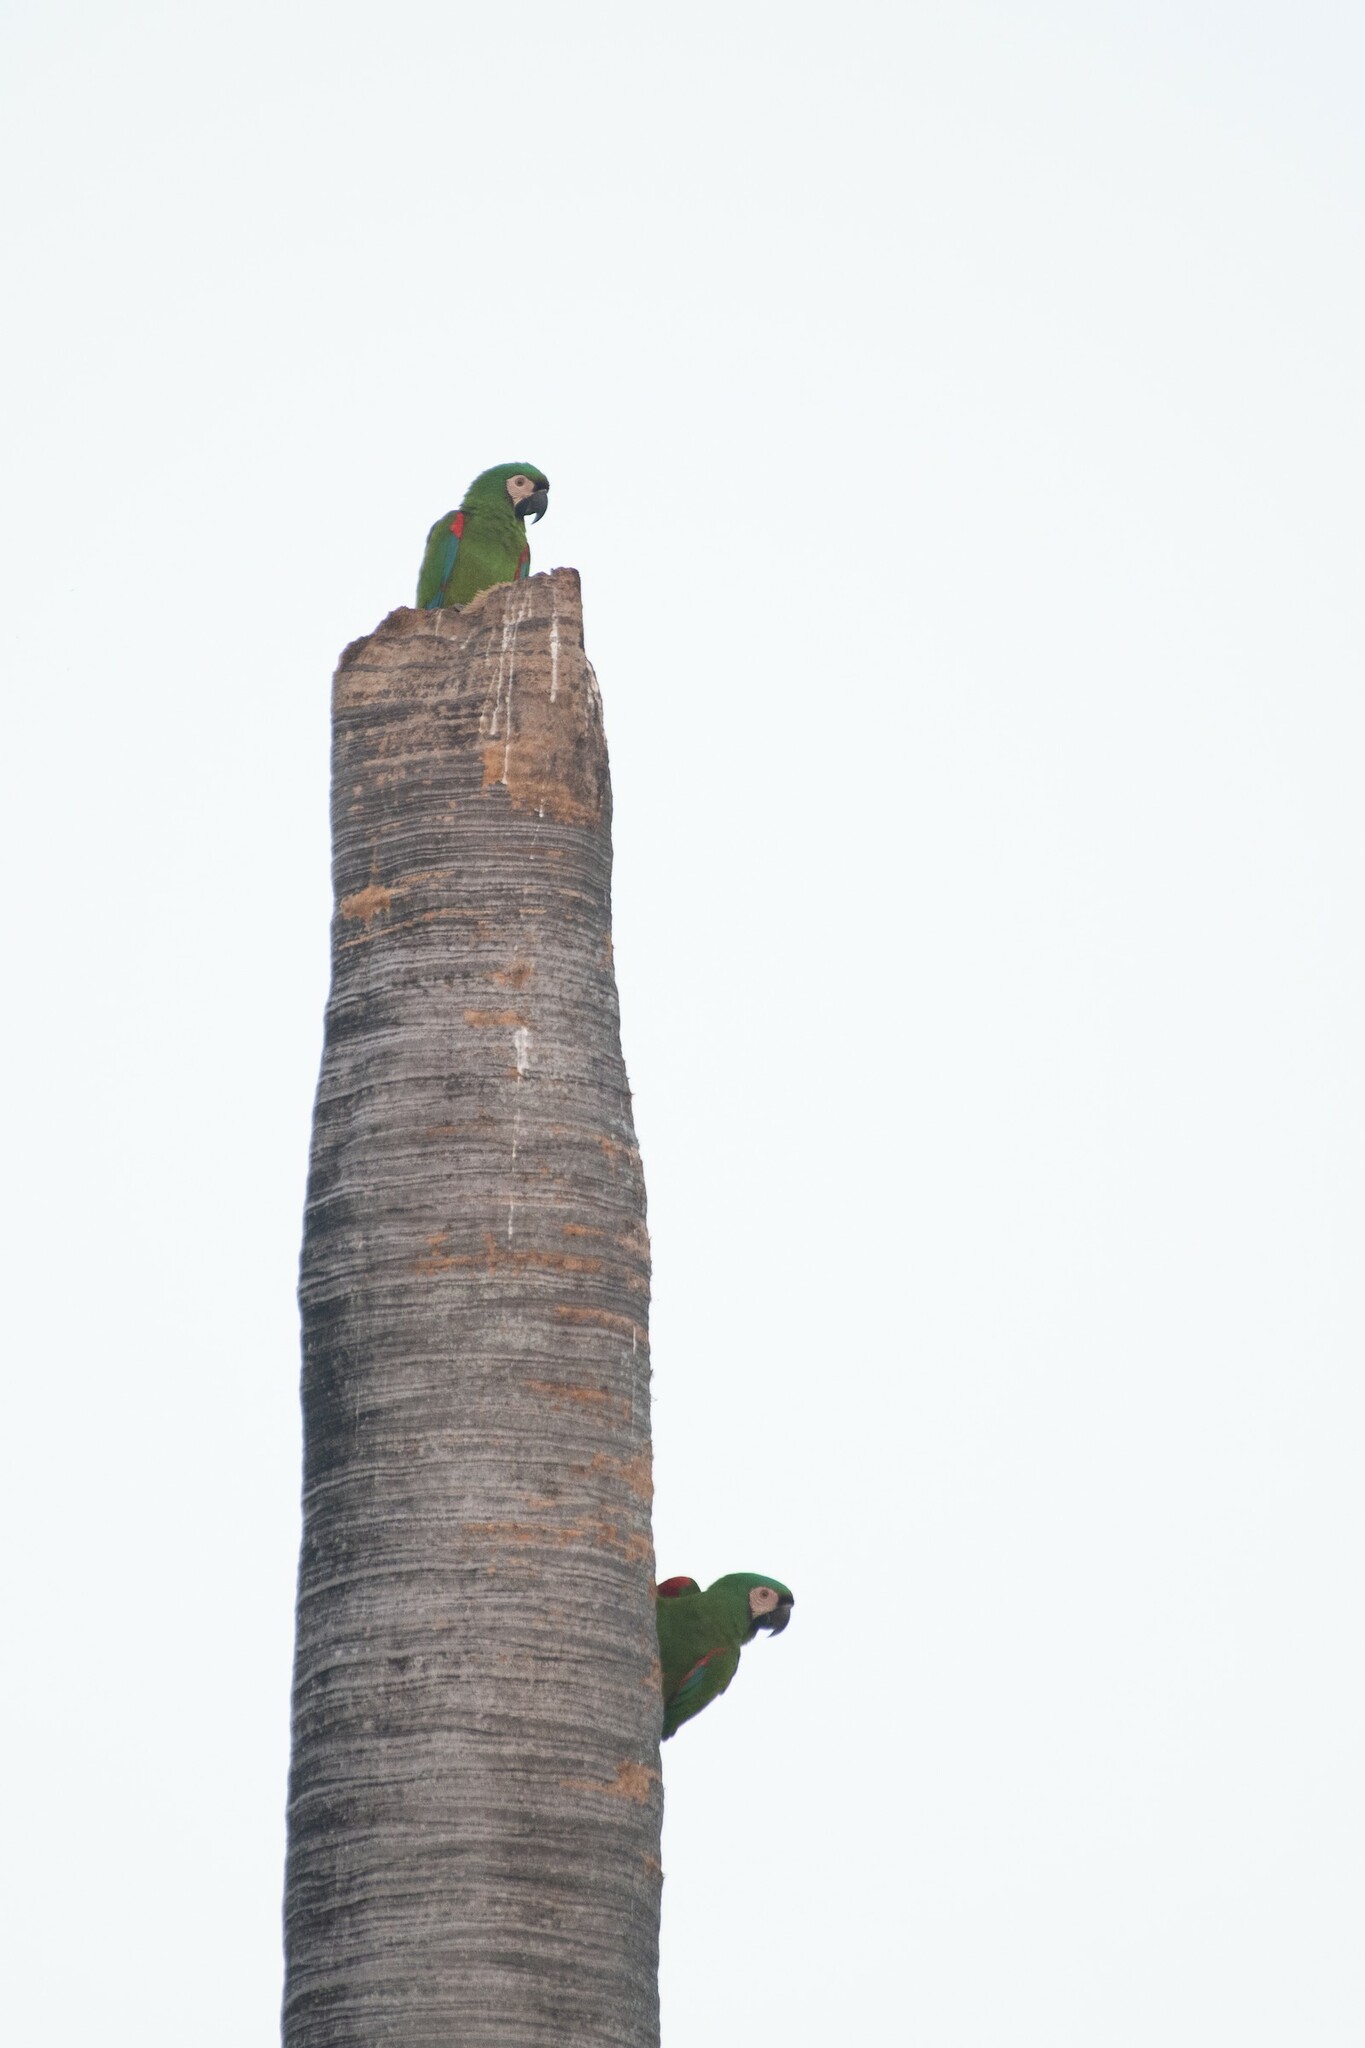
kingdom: Animalia
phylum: Chordata
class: Aves
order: Psittaciformes
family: Psittacidae
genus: Ara
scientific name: Ara severus
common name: Chestnut-fronted macaw
